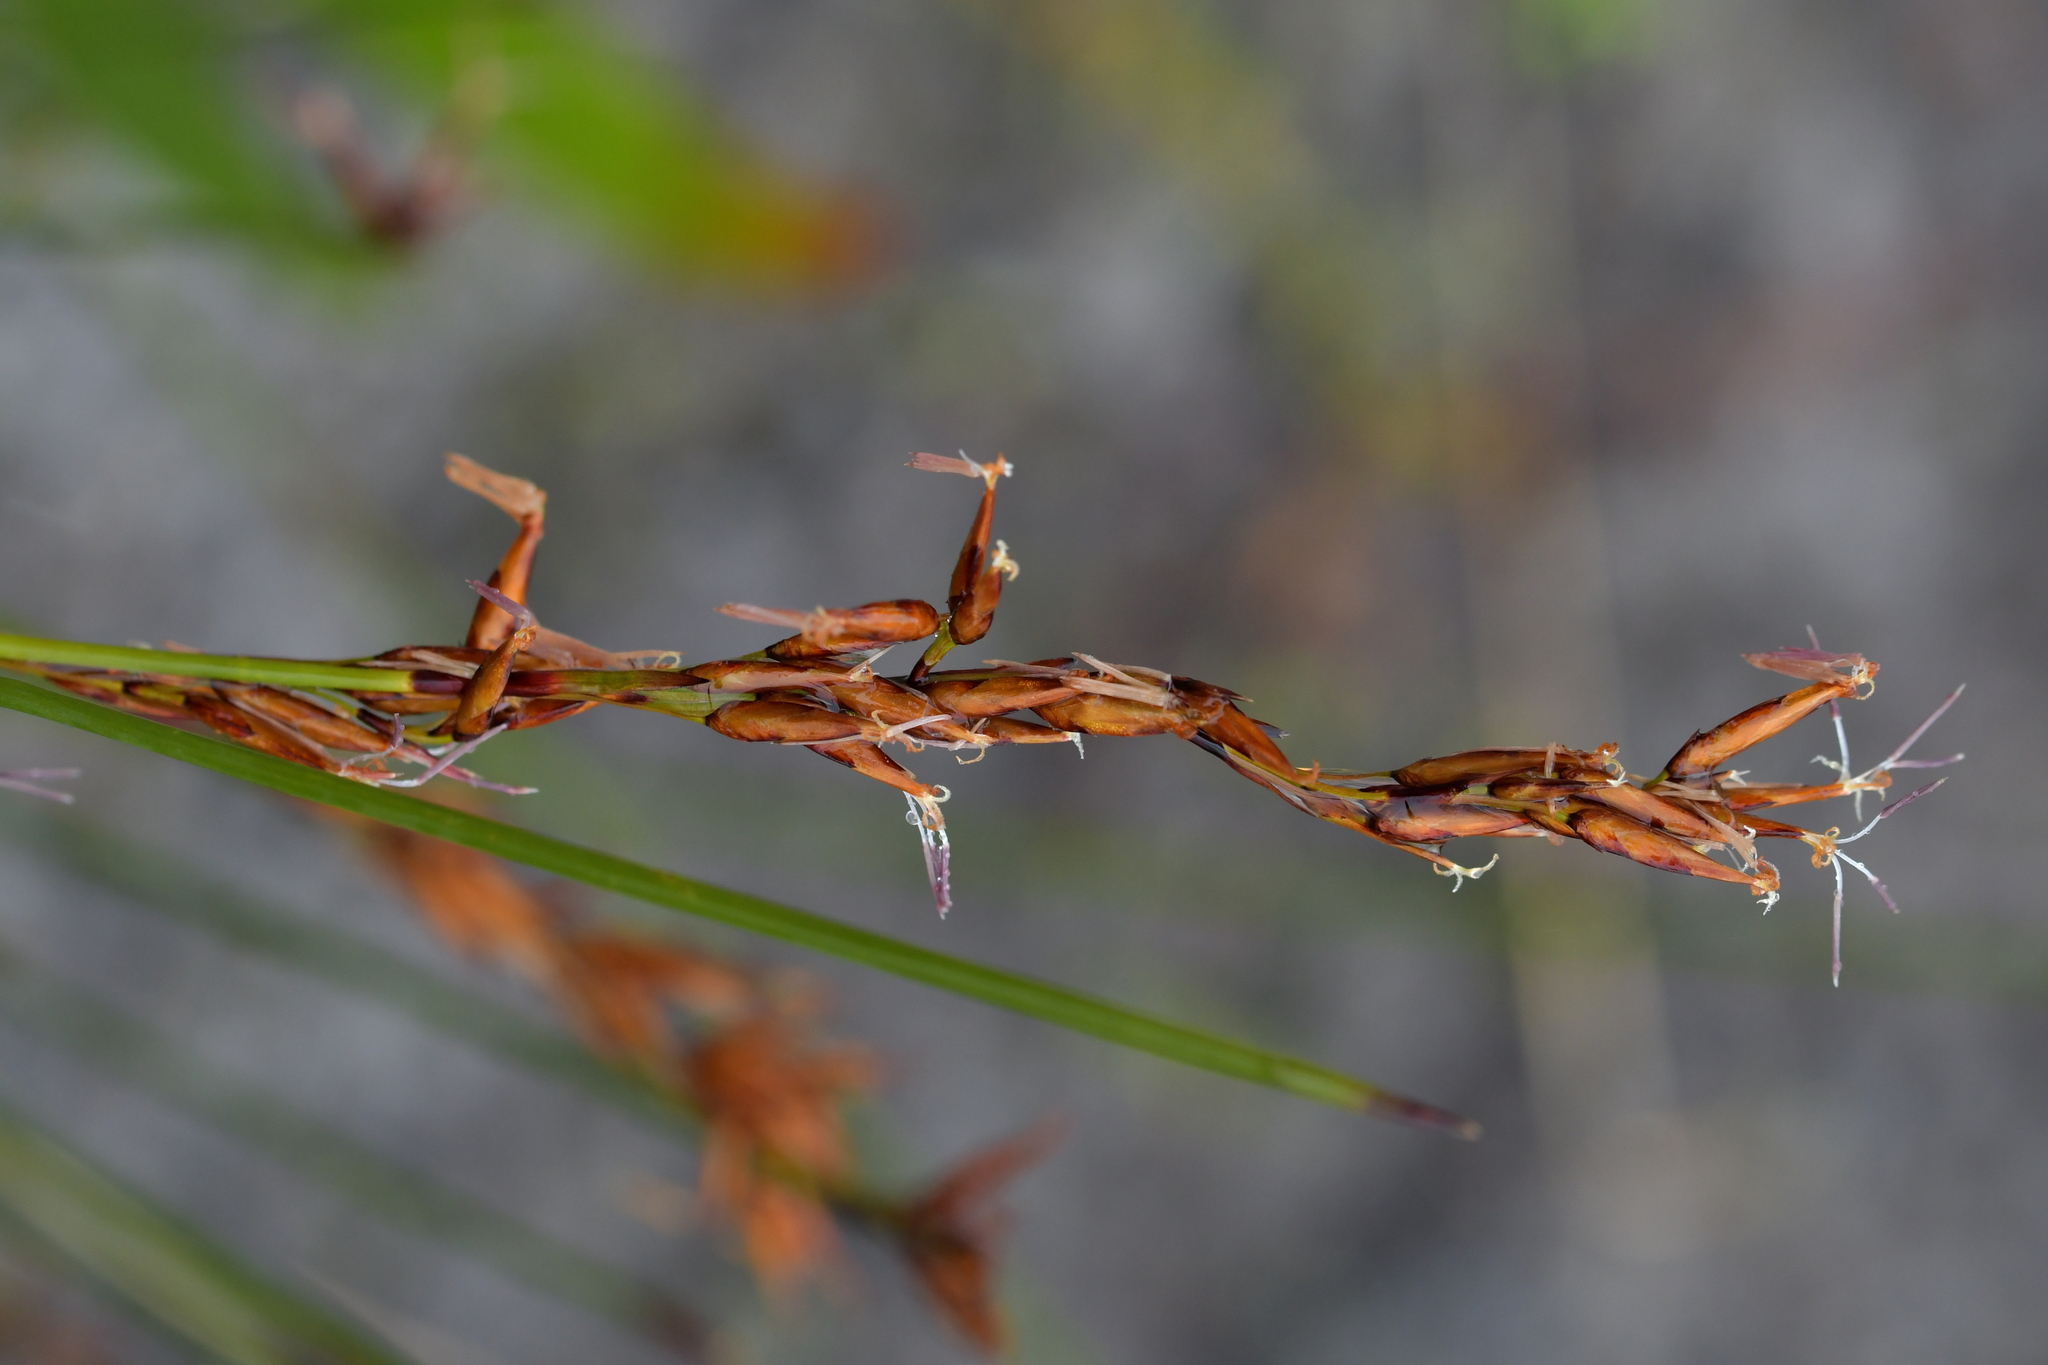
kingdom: Plantae
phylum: Tracheophyta
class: Liliopsida
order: Poales
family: Cyperaceae
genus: Schoenus
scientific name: Schoenus brevifolius
